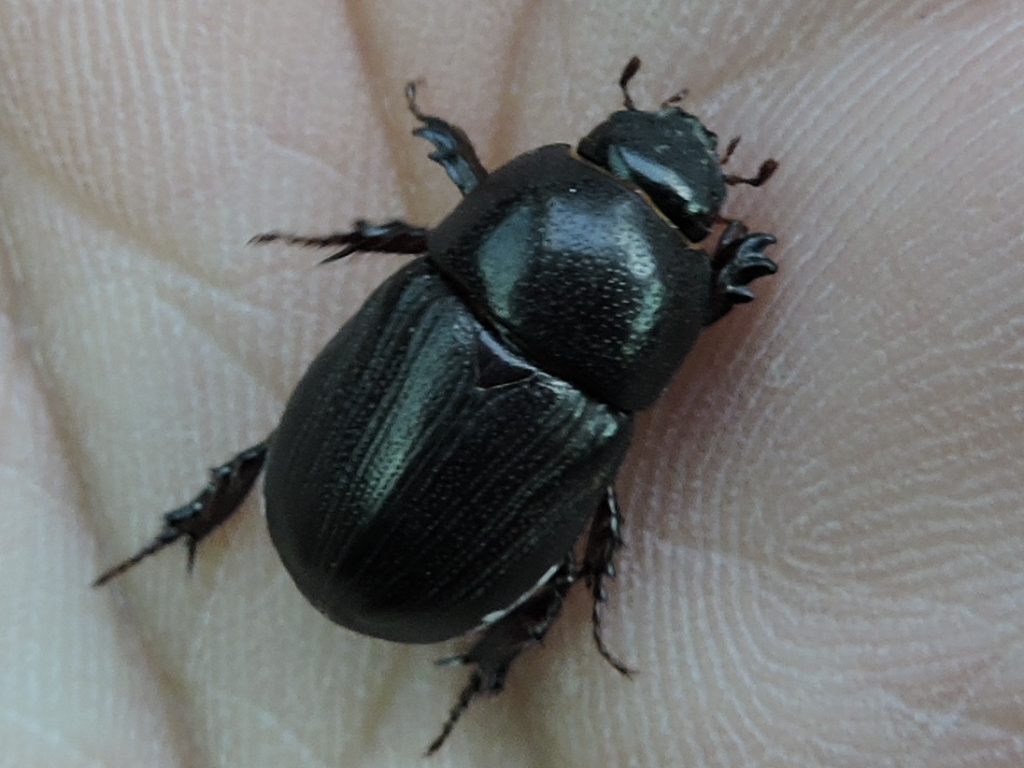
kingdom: Animalia
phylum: Arthropoda
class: Insecta
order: Coleoptera
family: Scarabaeidae
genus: Euetheola
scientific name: Euetheola humilis
